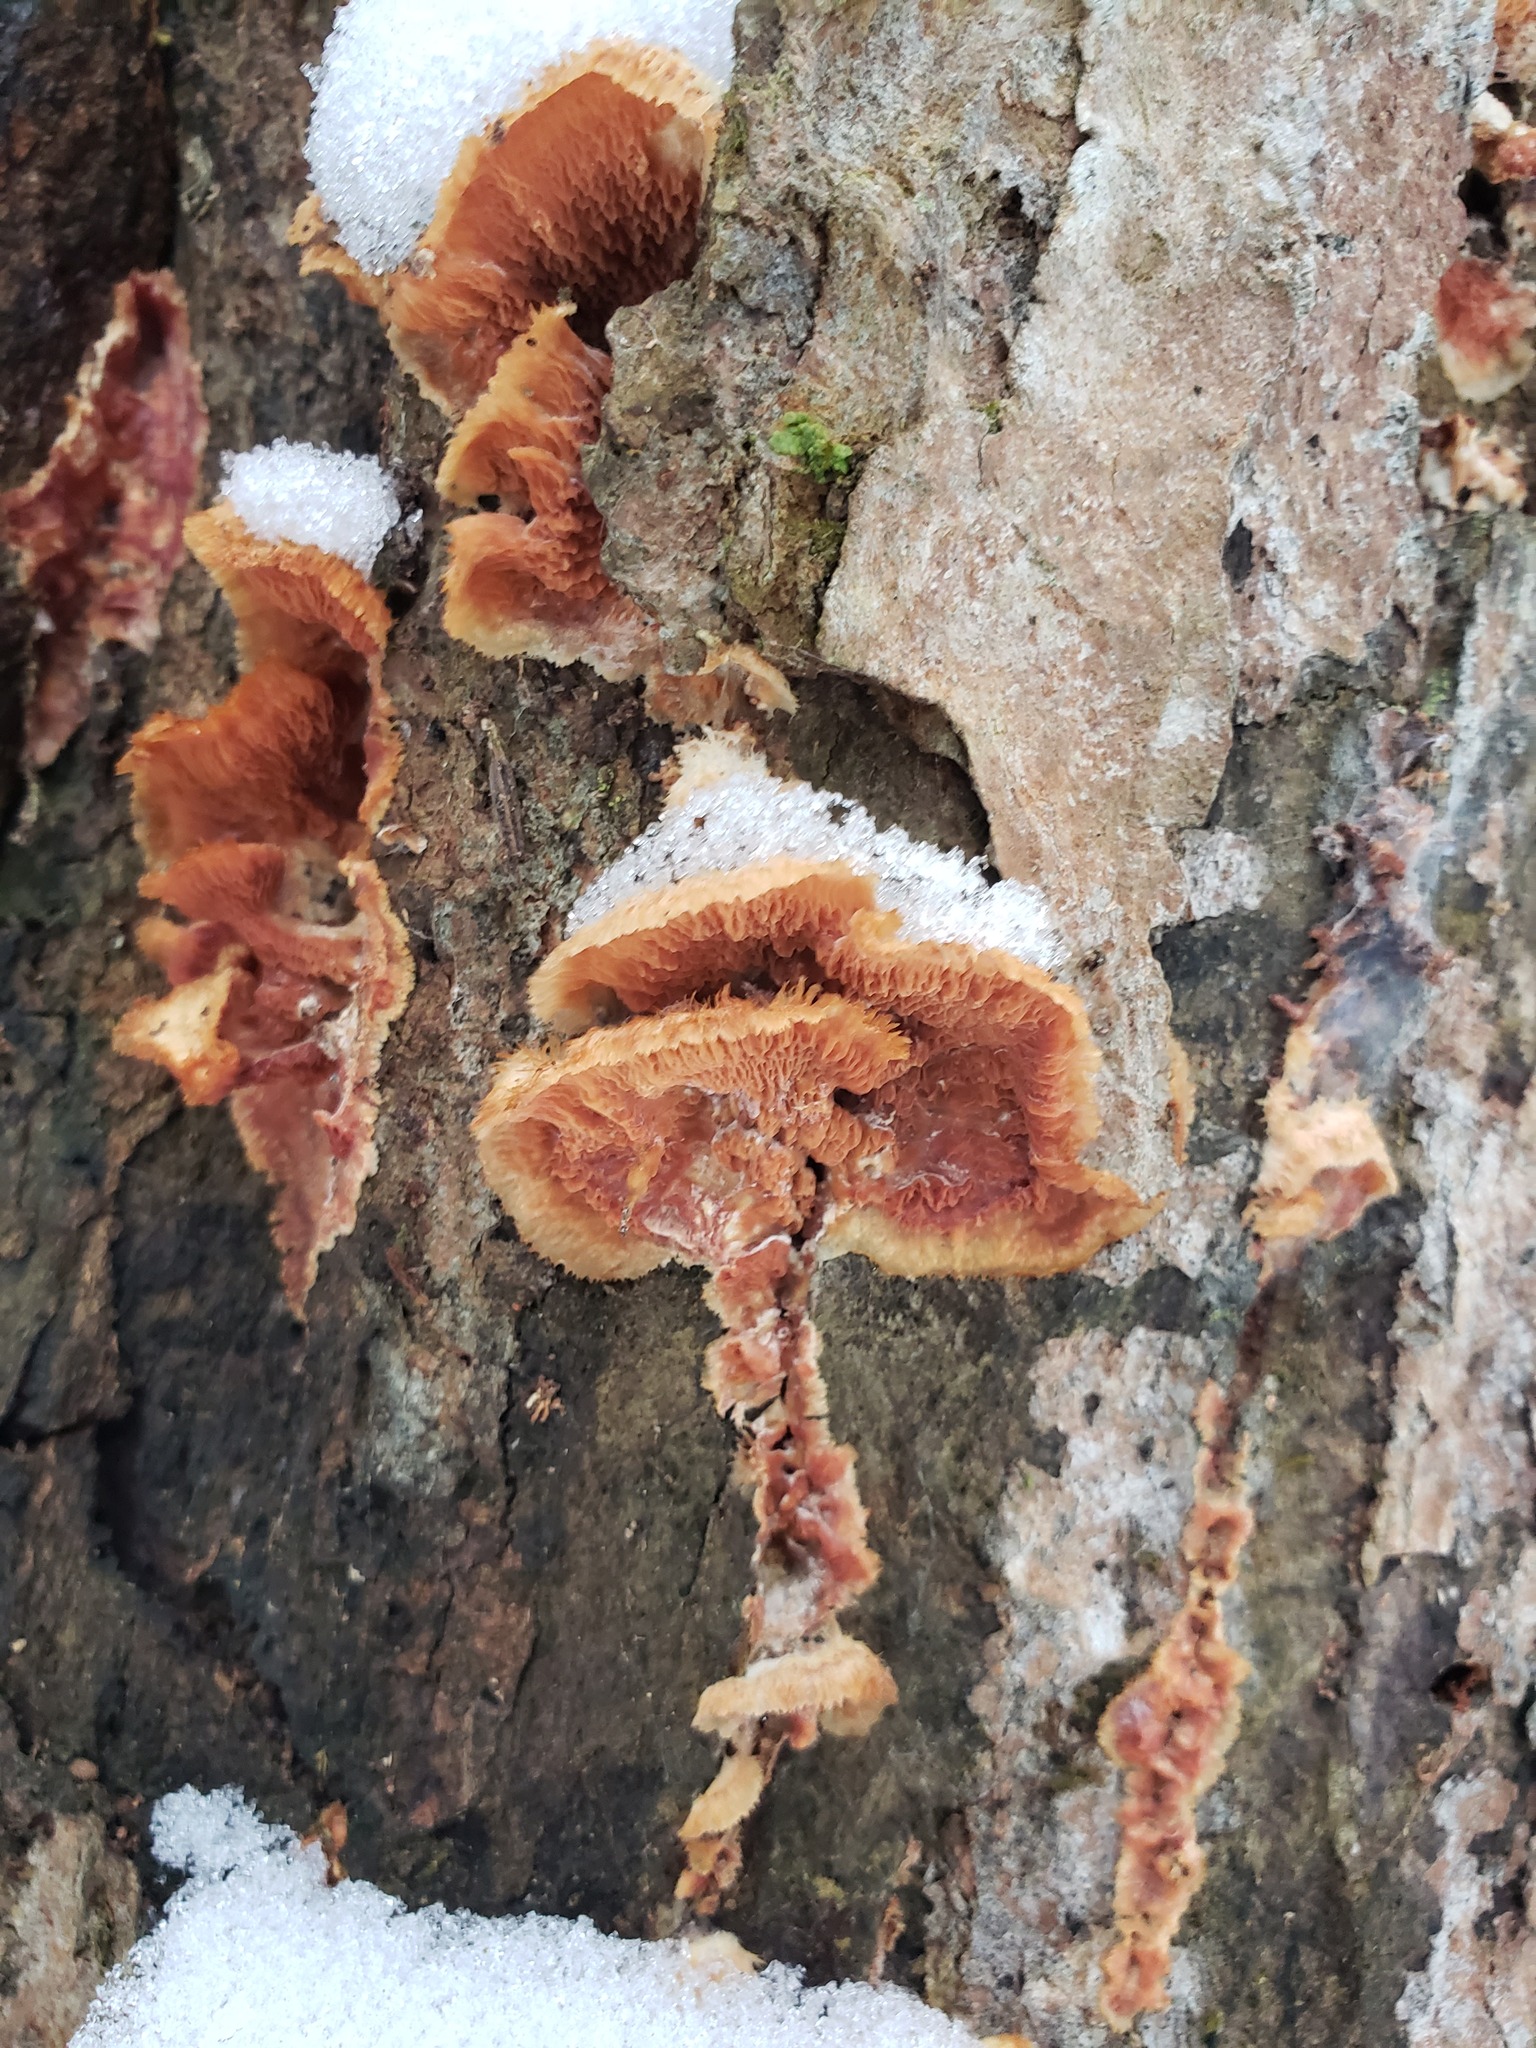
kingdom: Fungi
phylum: Basidiomycota
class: Agaricomycetes
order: Polyporales
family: Meruliaceae
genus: Phlebia
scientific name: Phlebia tremellosa
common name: Jelly rot
